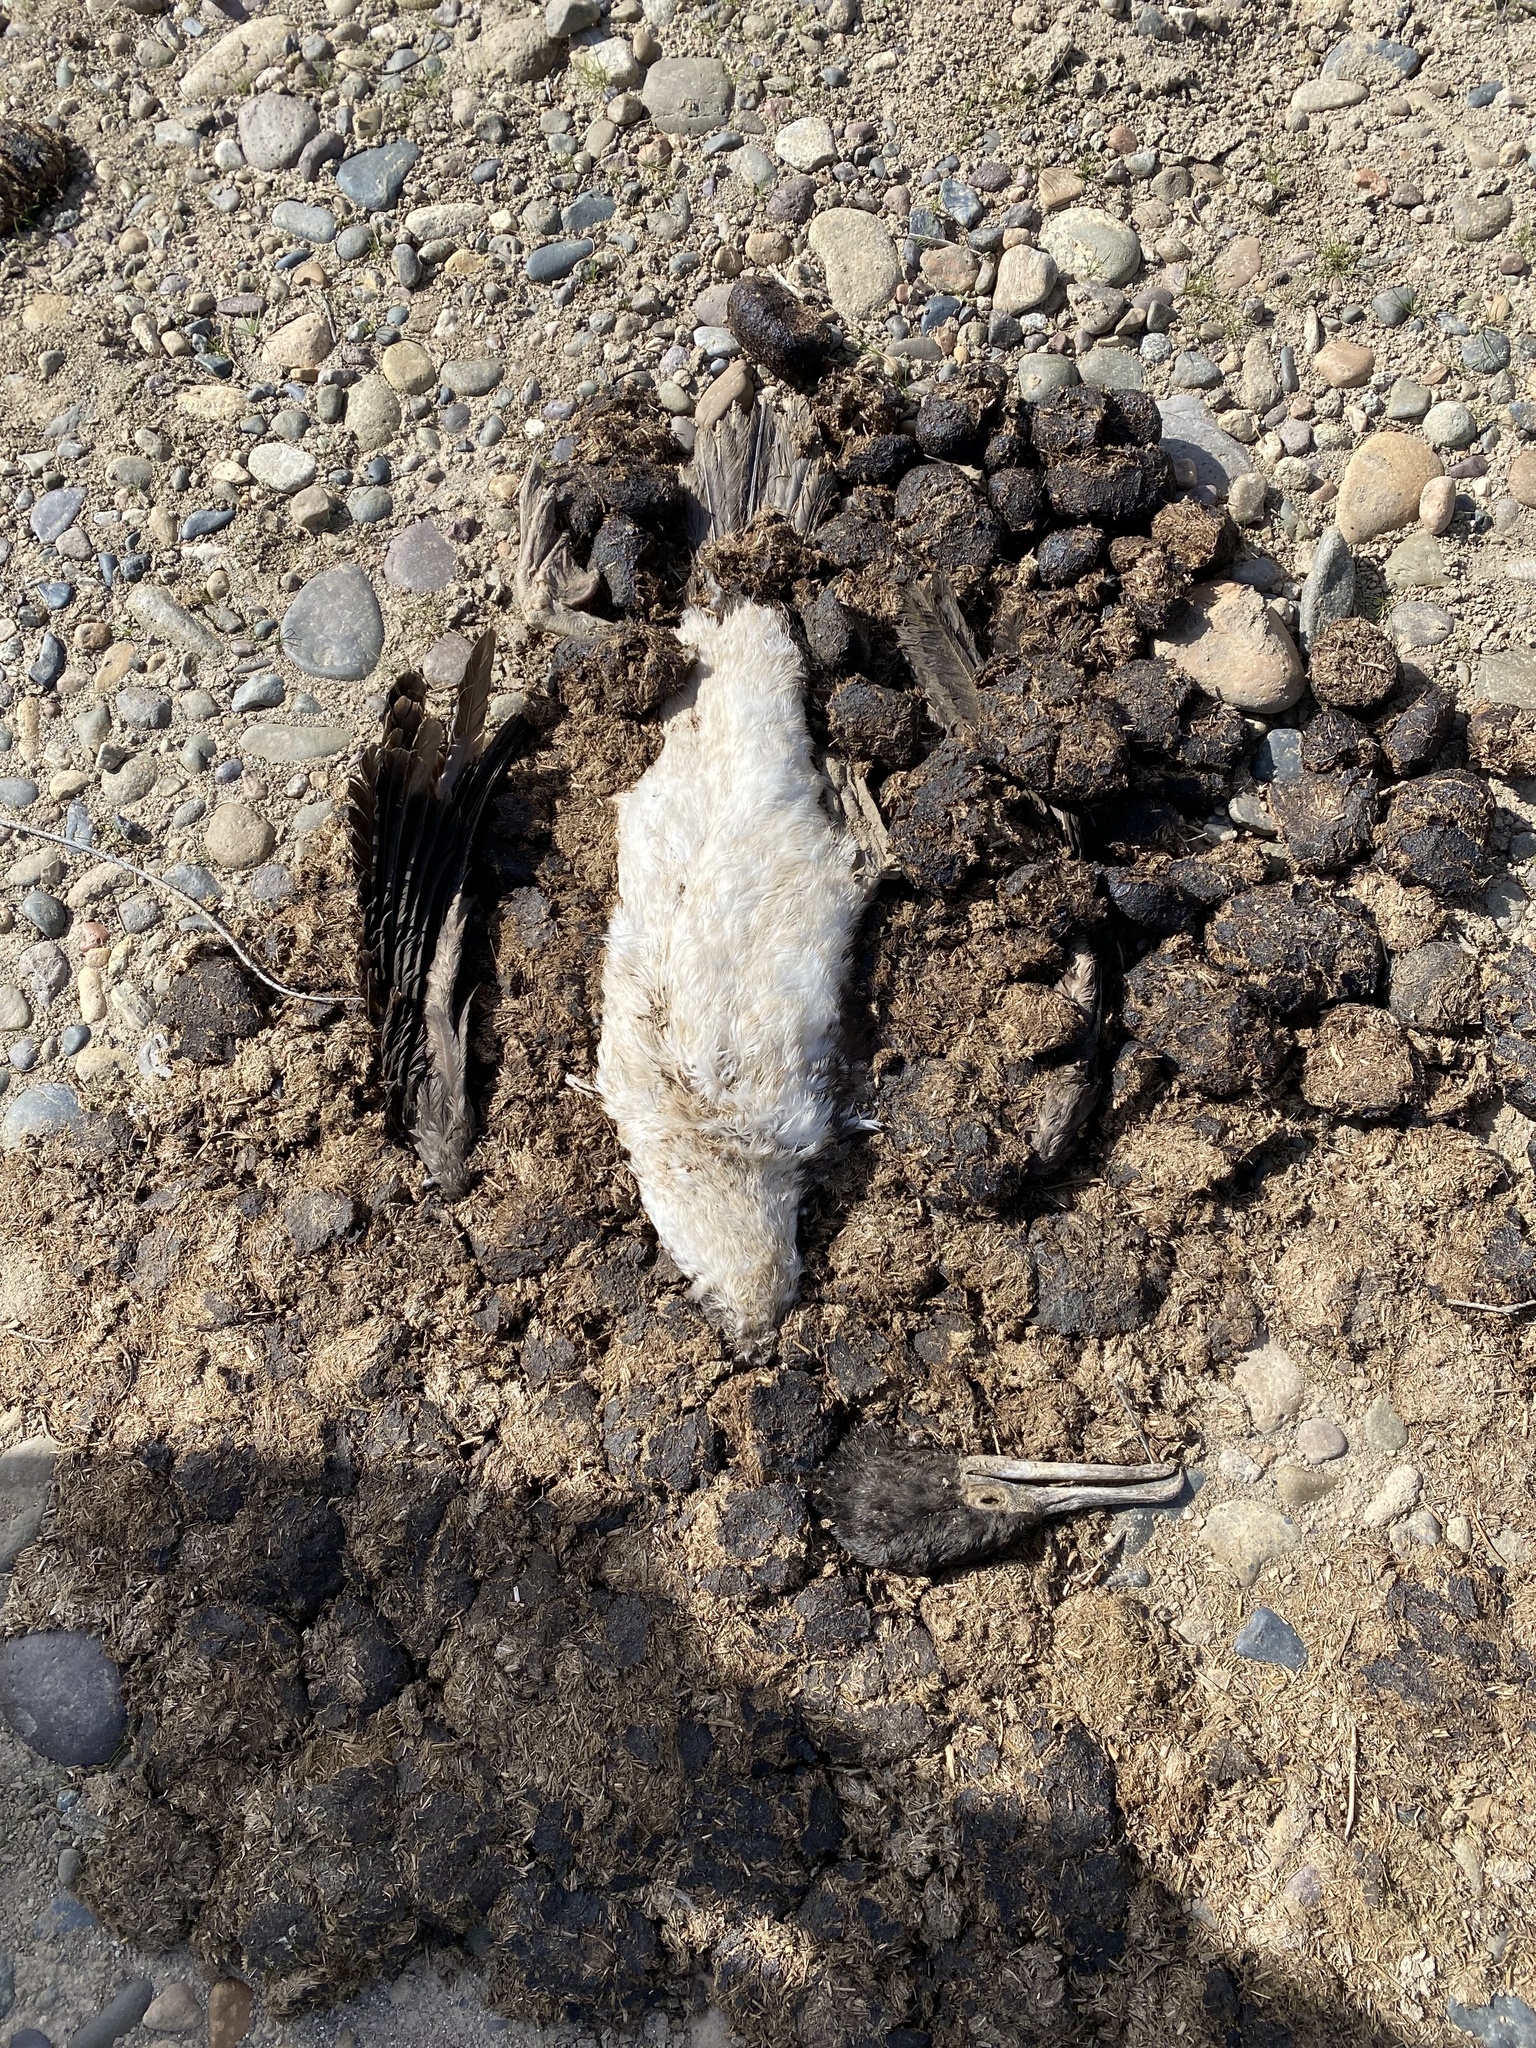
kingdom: Animalia
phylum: Chordata
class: Aves
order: Suliformes
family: Phalacrocoracidae
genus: Leucocarbo
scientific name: Leucocarbo bougainvillii
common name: Guanay cormorant
